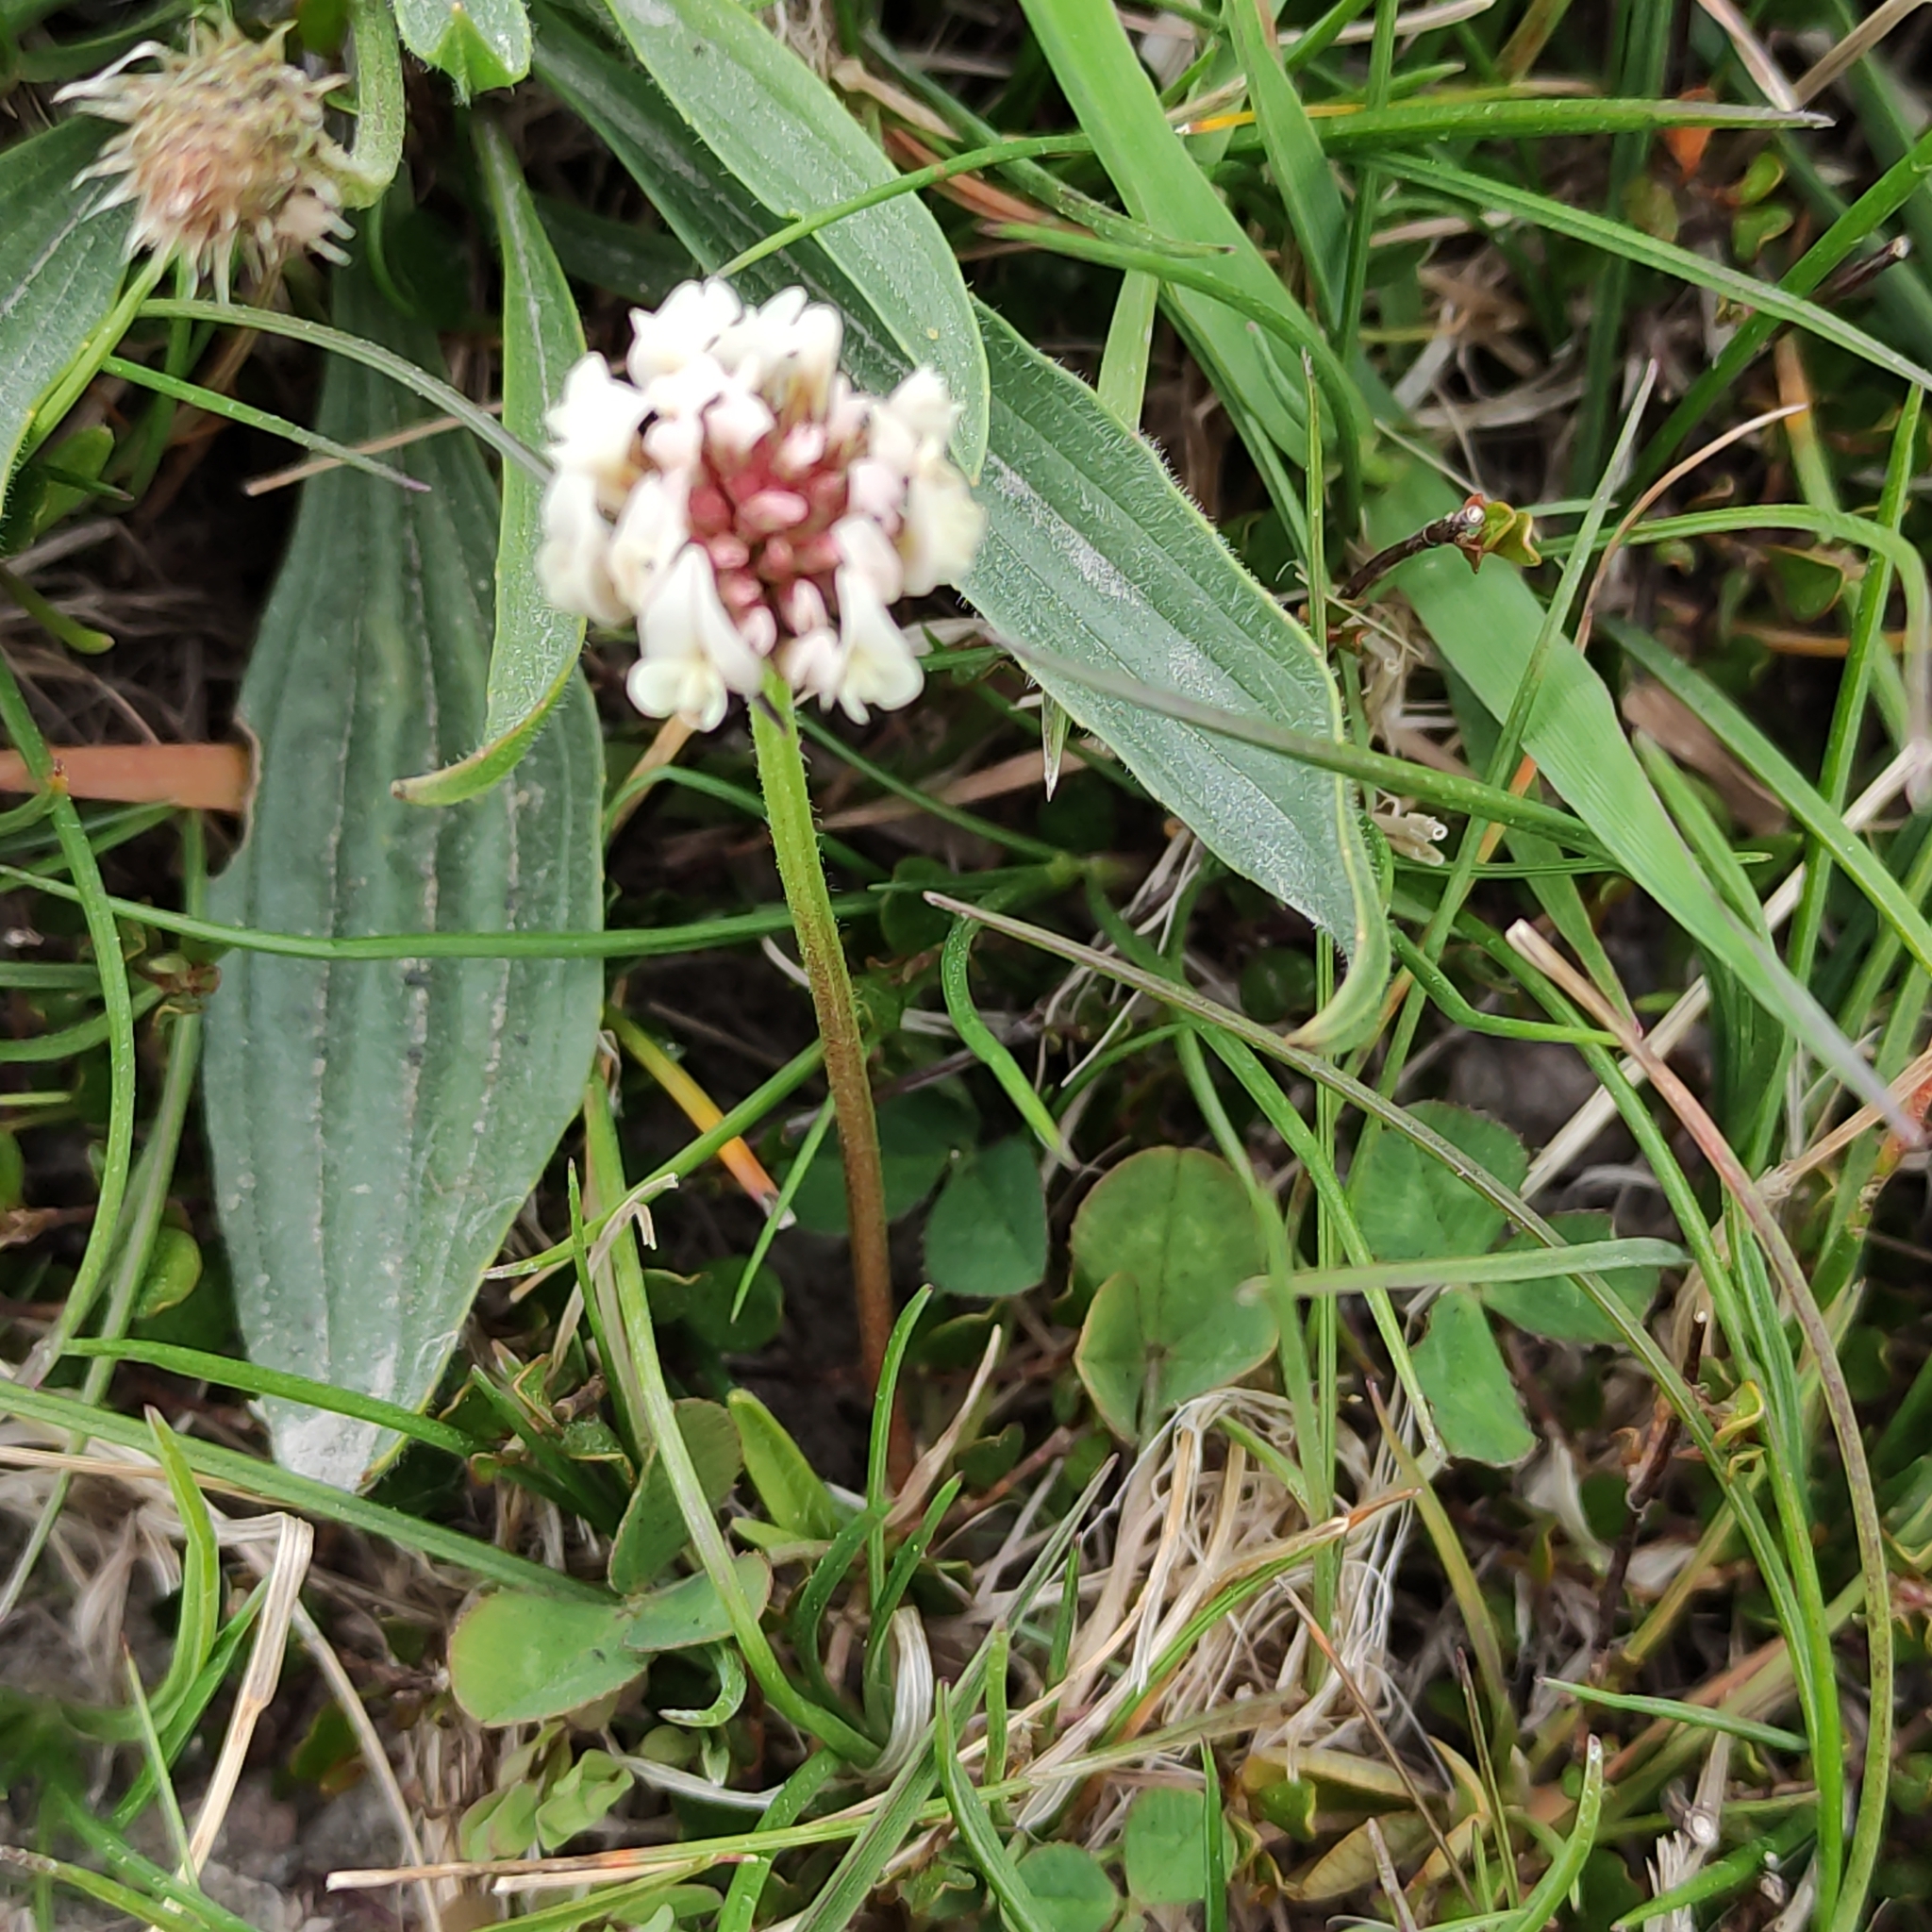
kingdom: Plantae
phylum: Tracheophyta
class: Magnoliopsida
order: Fabales
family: Fabaceae
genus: Trifolium
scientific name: Trifolium repens
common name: White clover
